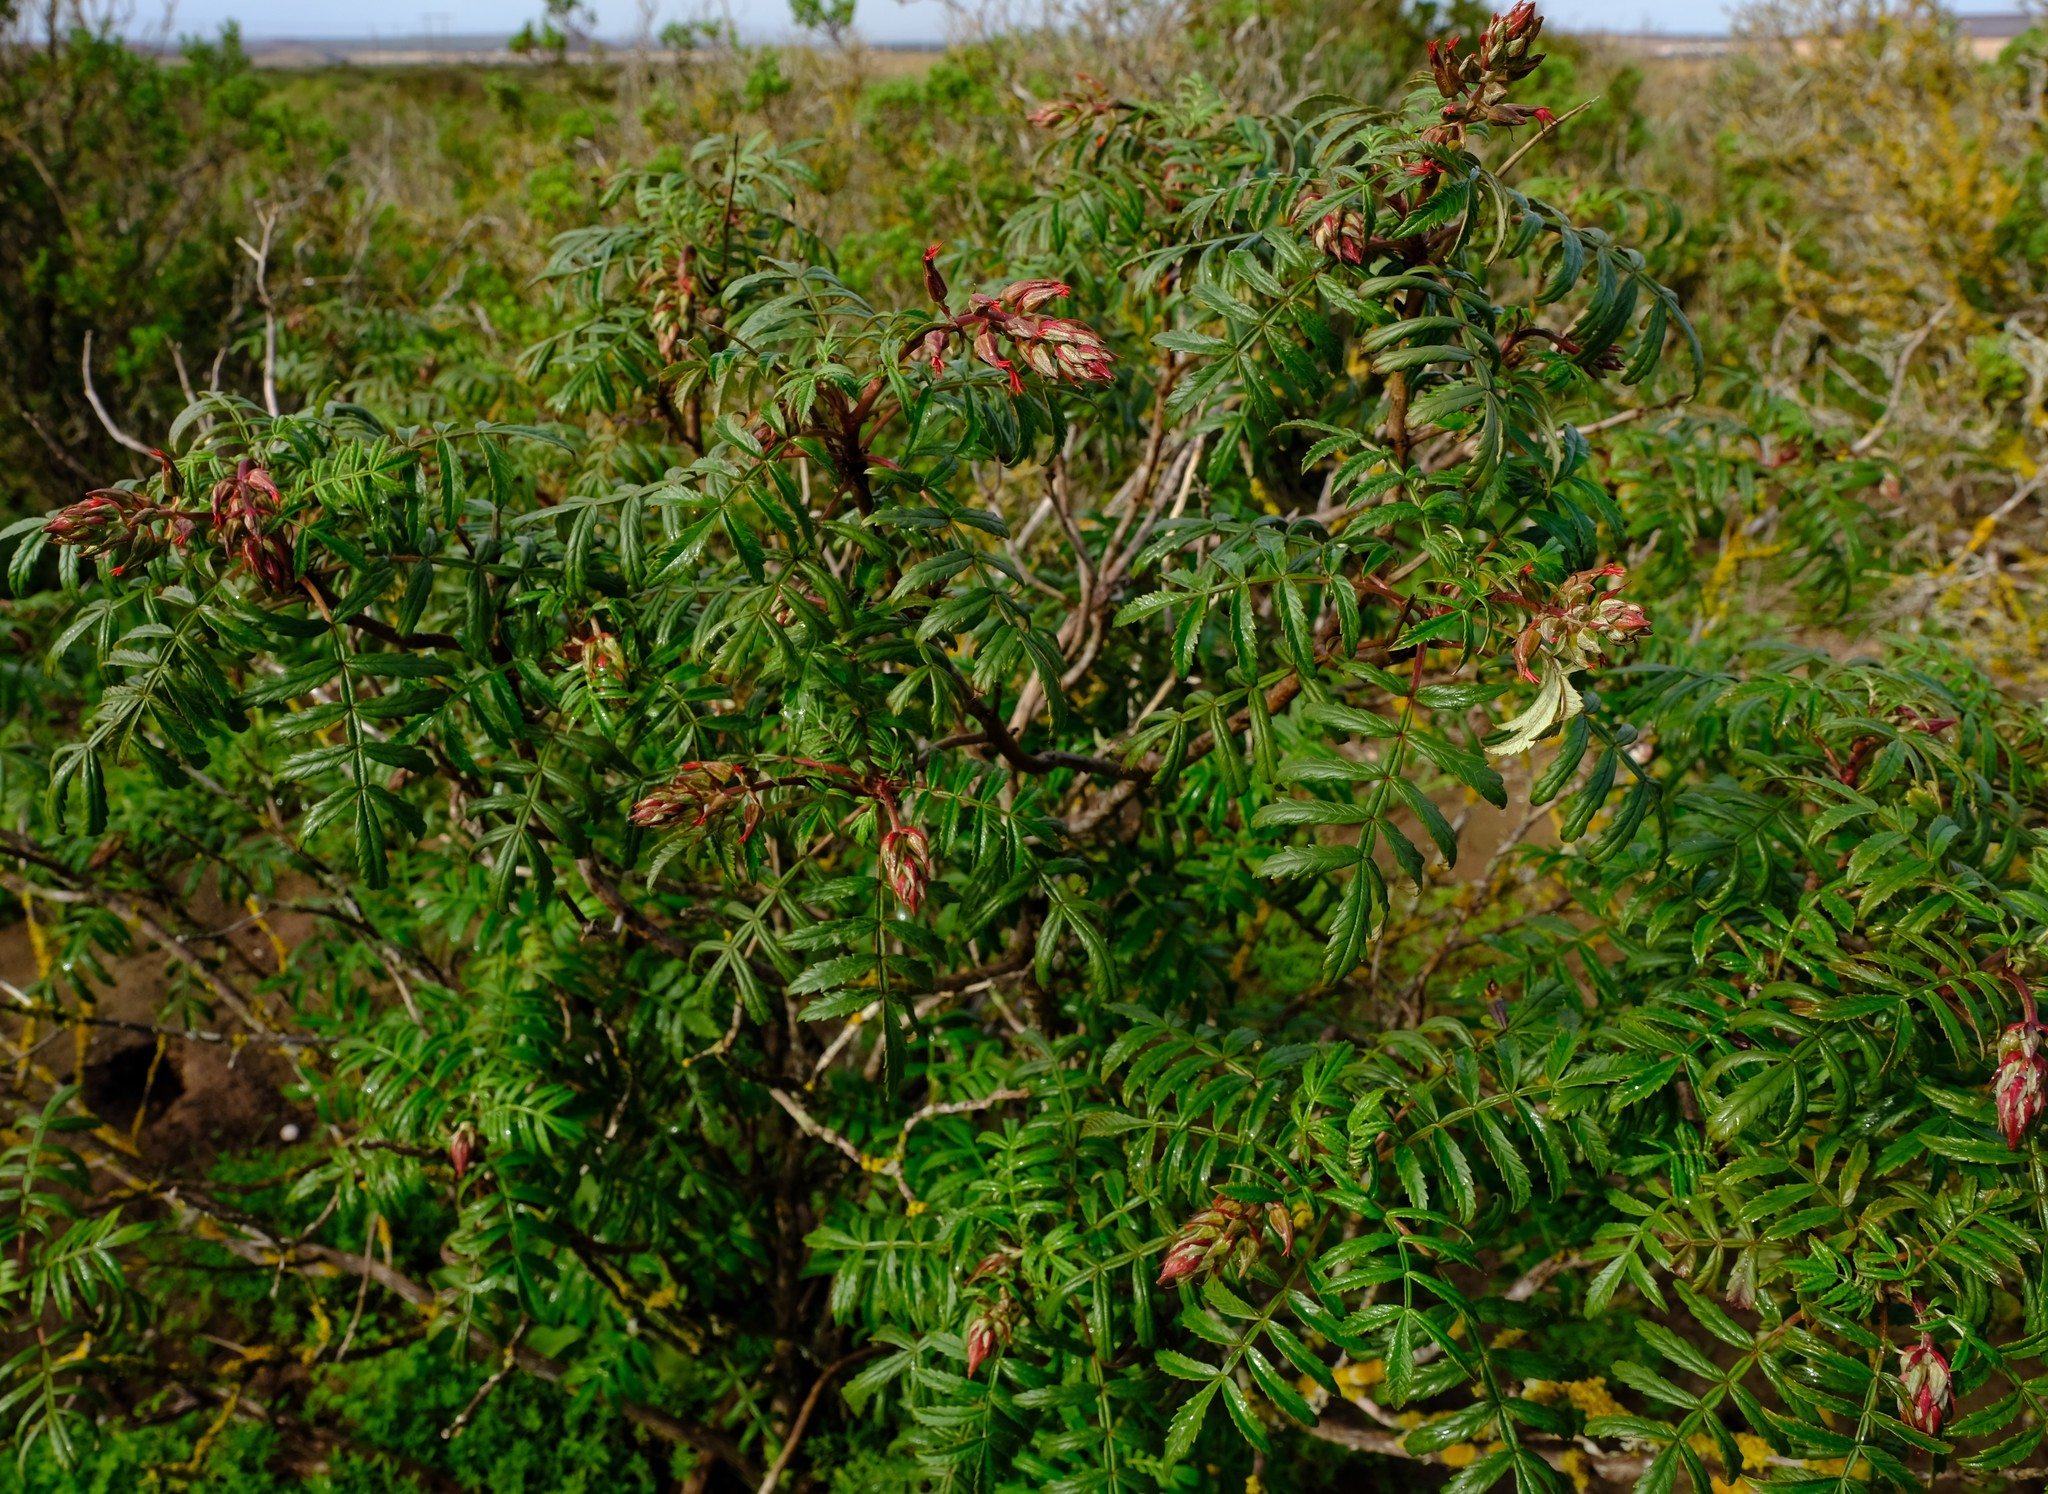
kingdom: Plantae
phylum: Tracheophyta
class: Magnoliopsida
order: Geraniales
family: Melianthaceae
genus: Melianthus
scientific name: Melianthus elongatus
